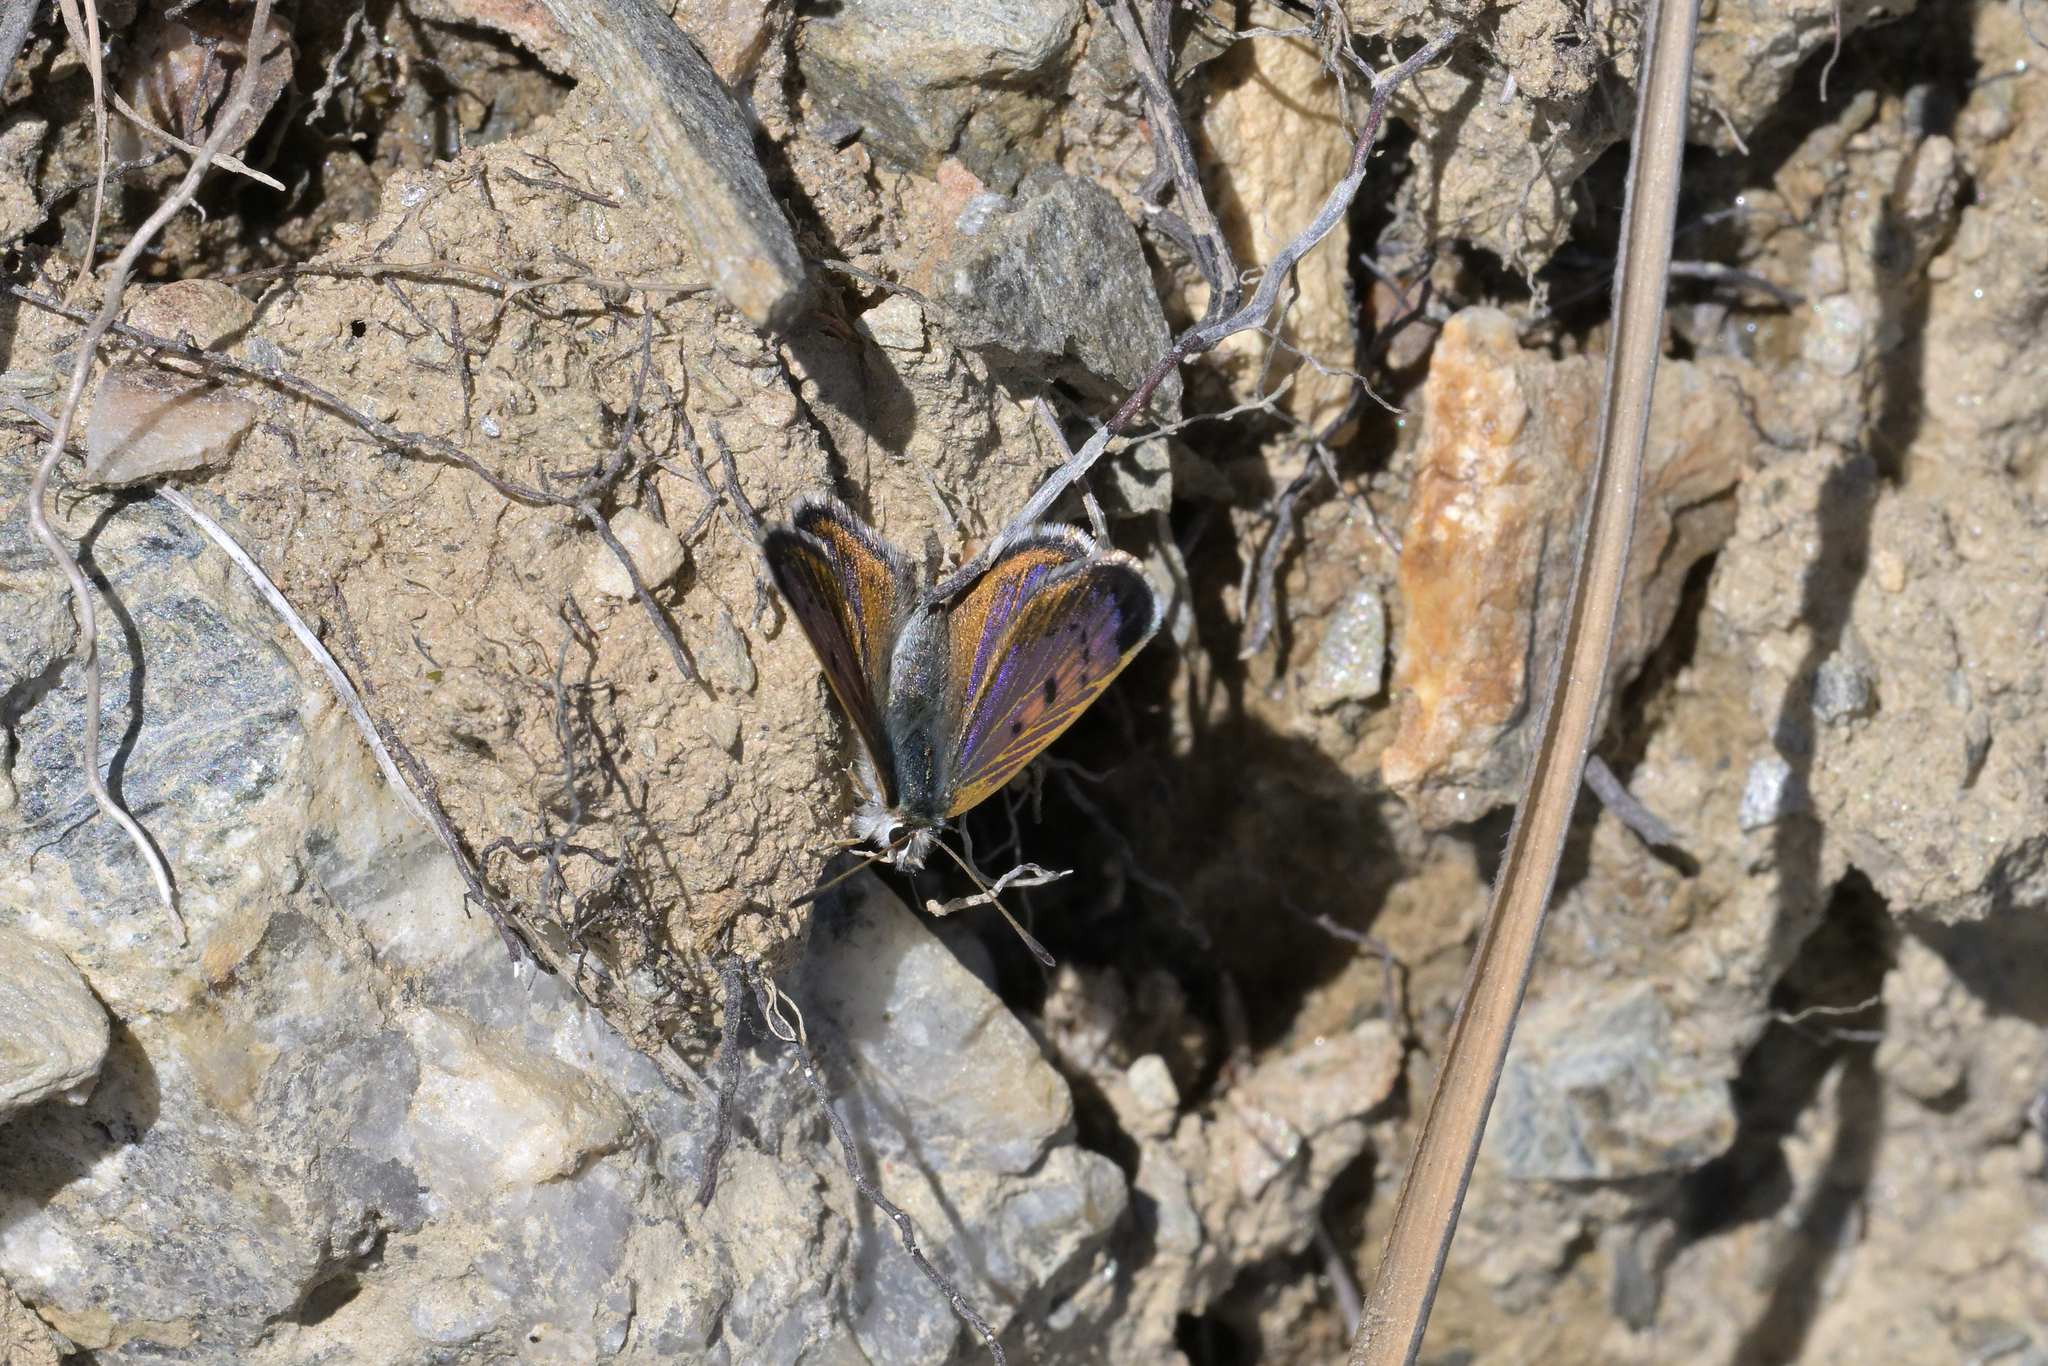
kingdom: Animalia
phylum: Arthropoda
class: Insecta
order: Lepidoptera
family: Lycaenidae
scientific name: Lycaenidae
